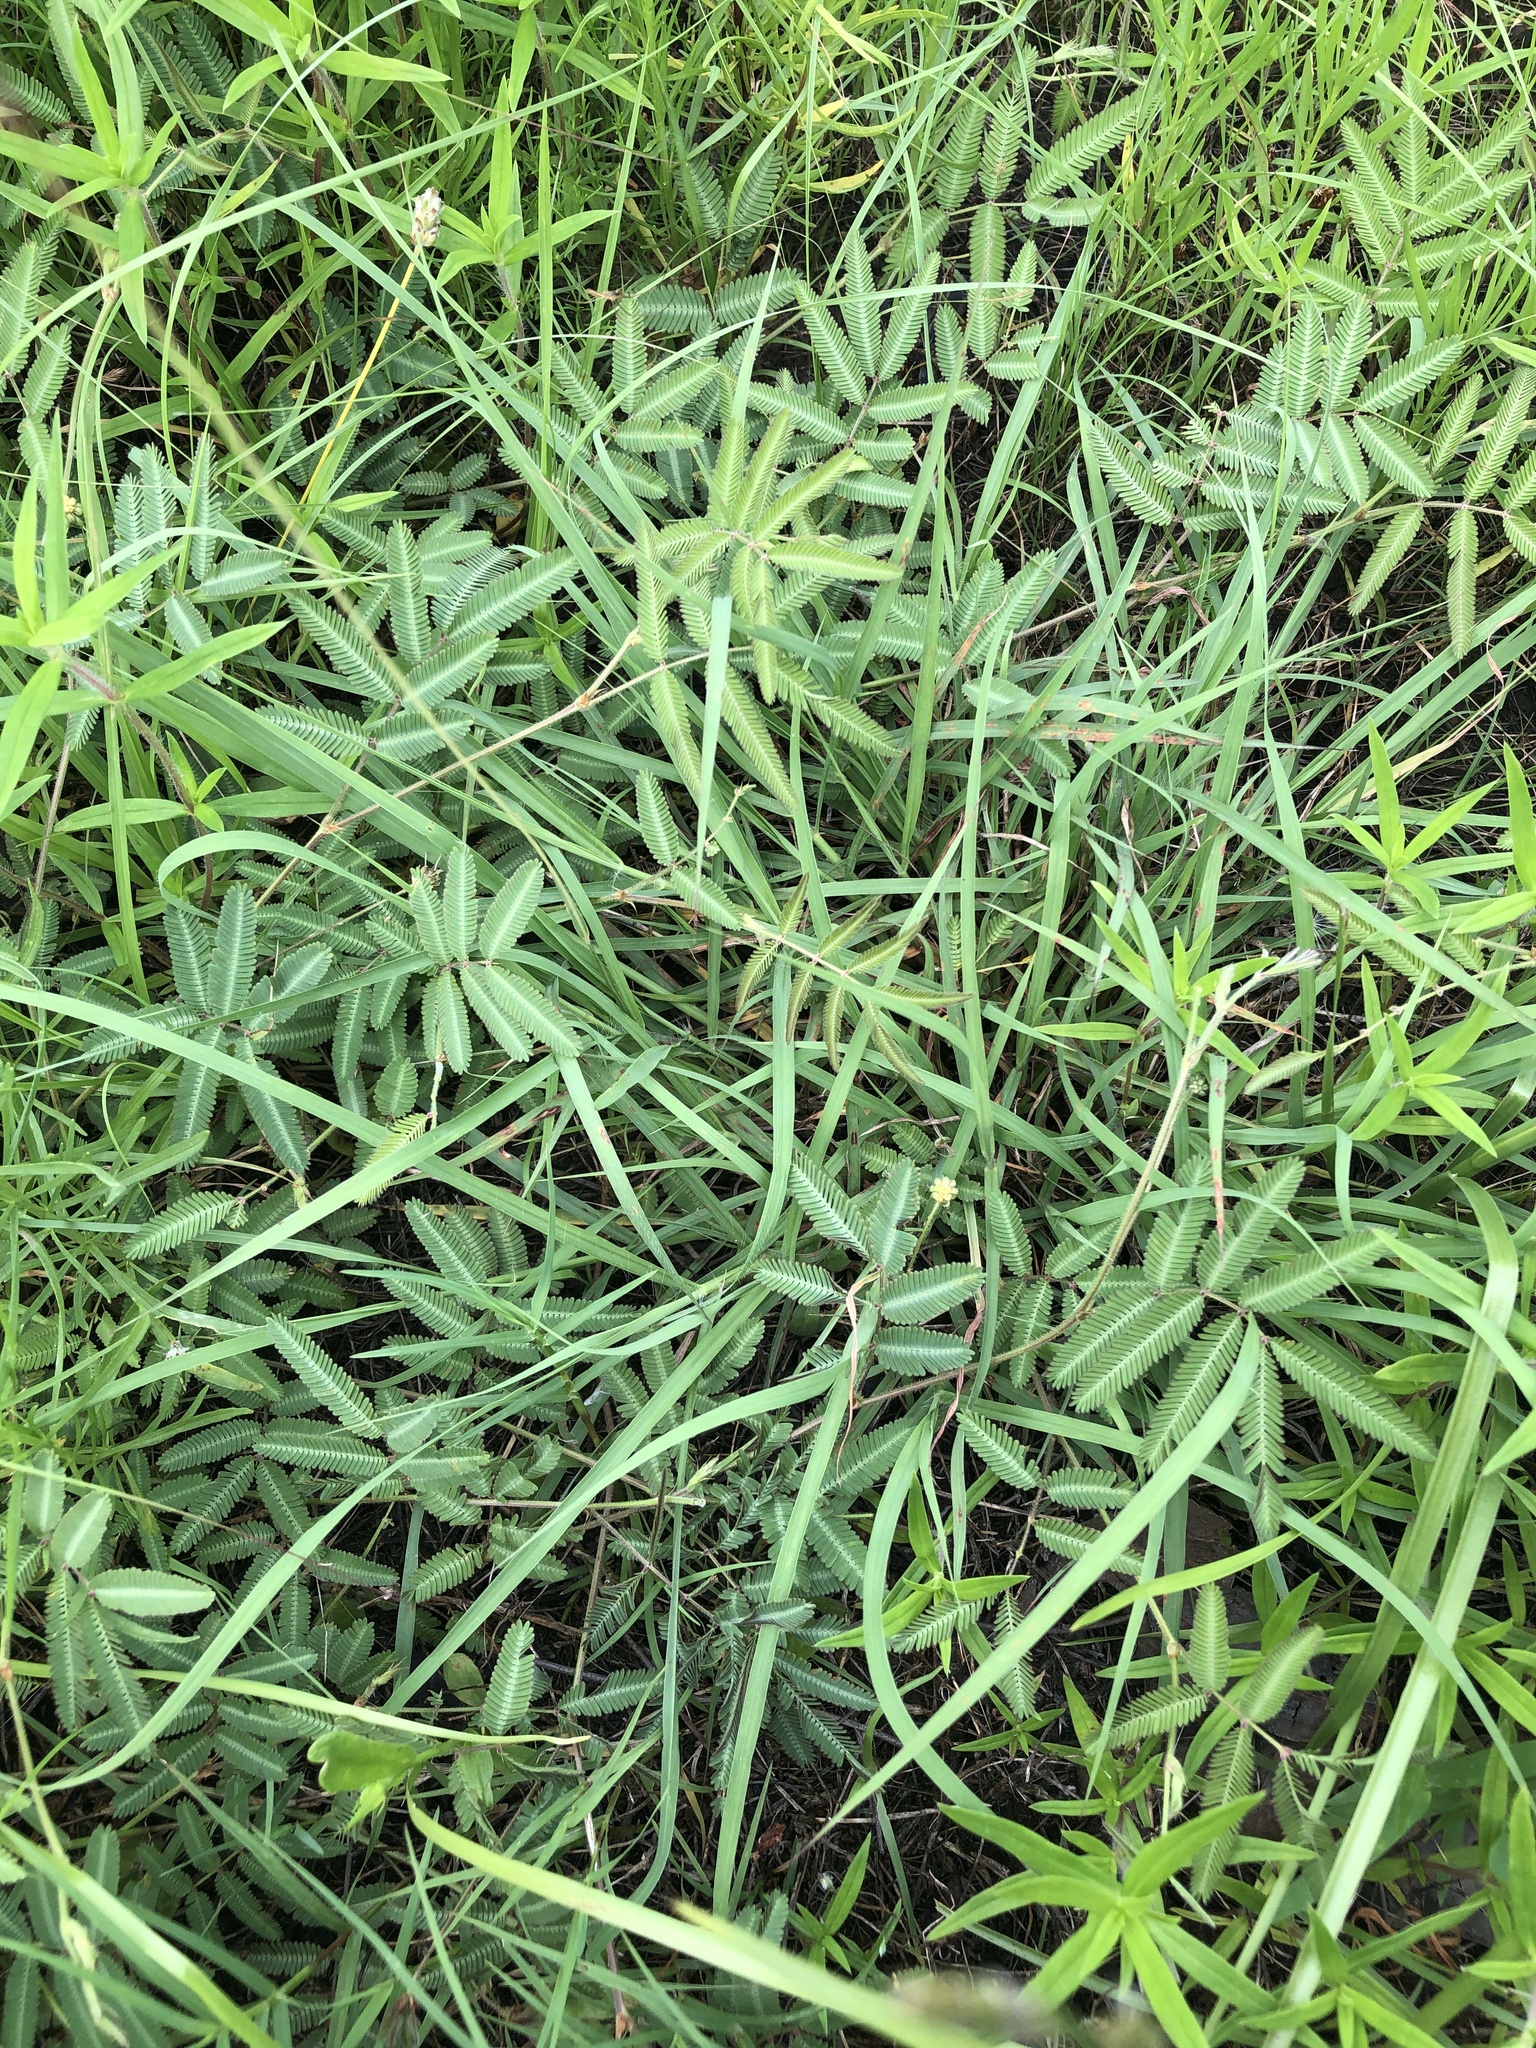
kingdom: Plantae
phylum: Tracheophyta
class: Magnoliopsida
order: Fabales
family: Fabaceae
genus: Neptunia
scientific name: Neptunia pubescens
